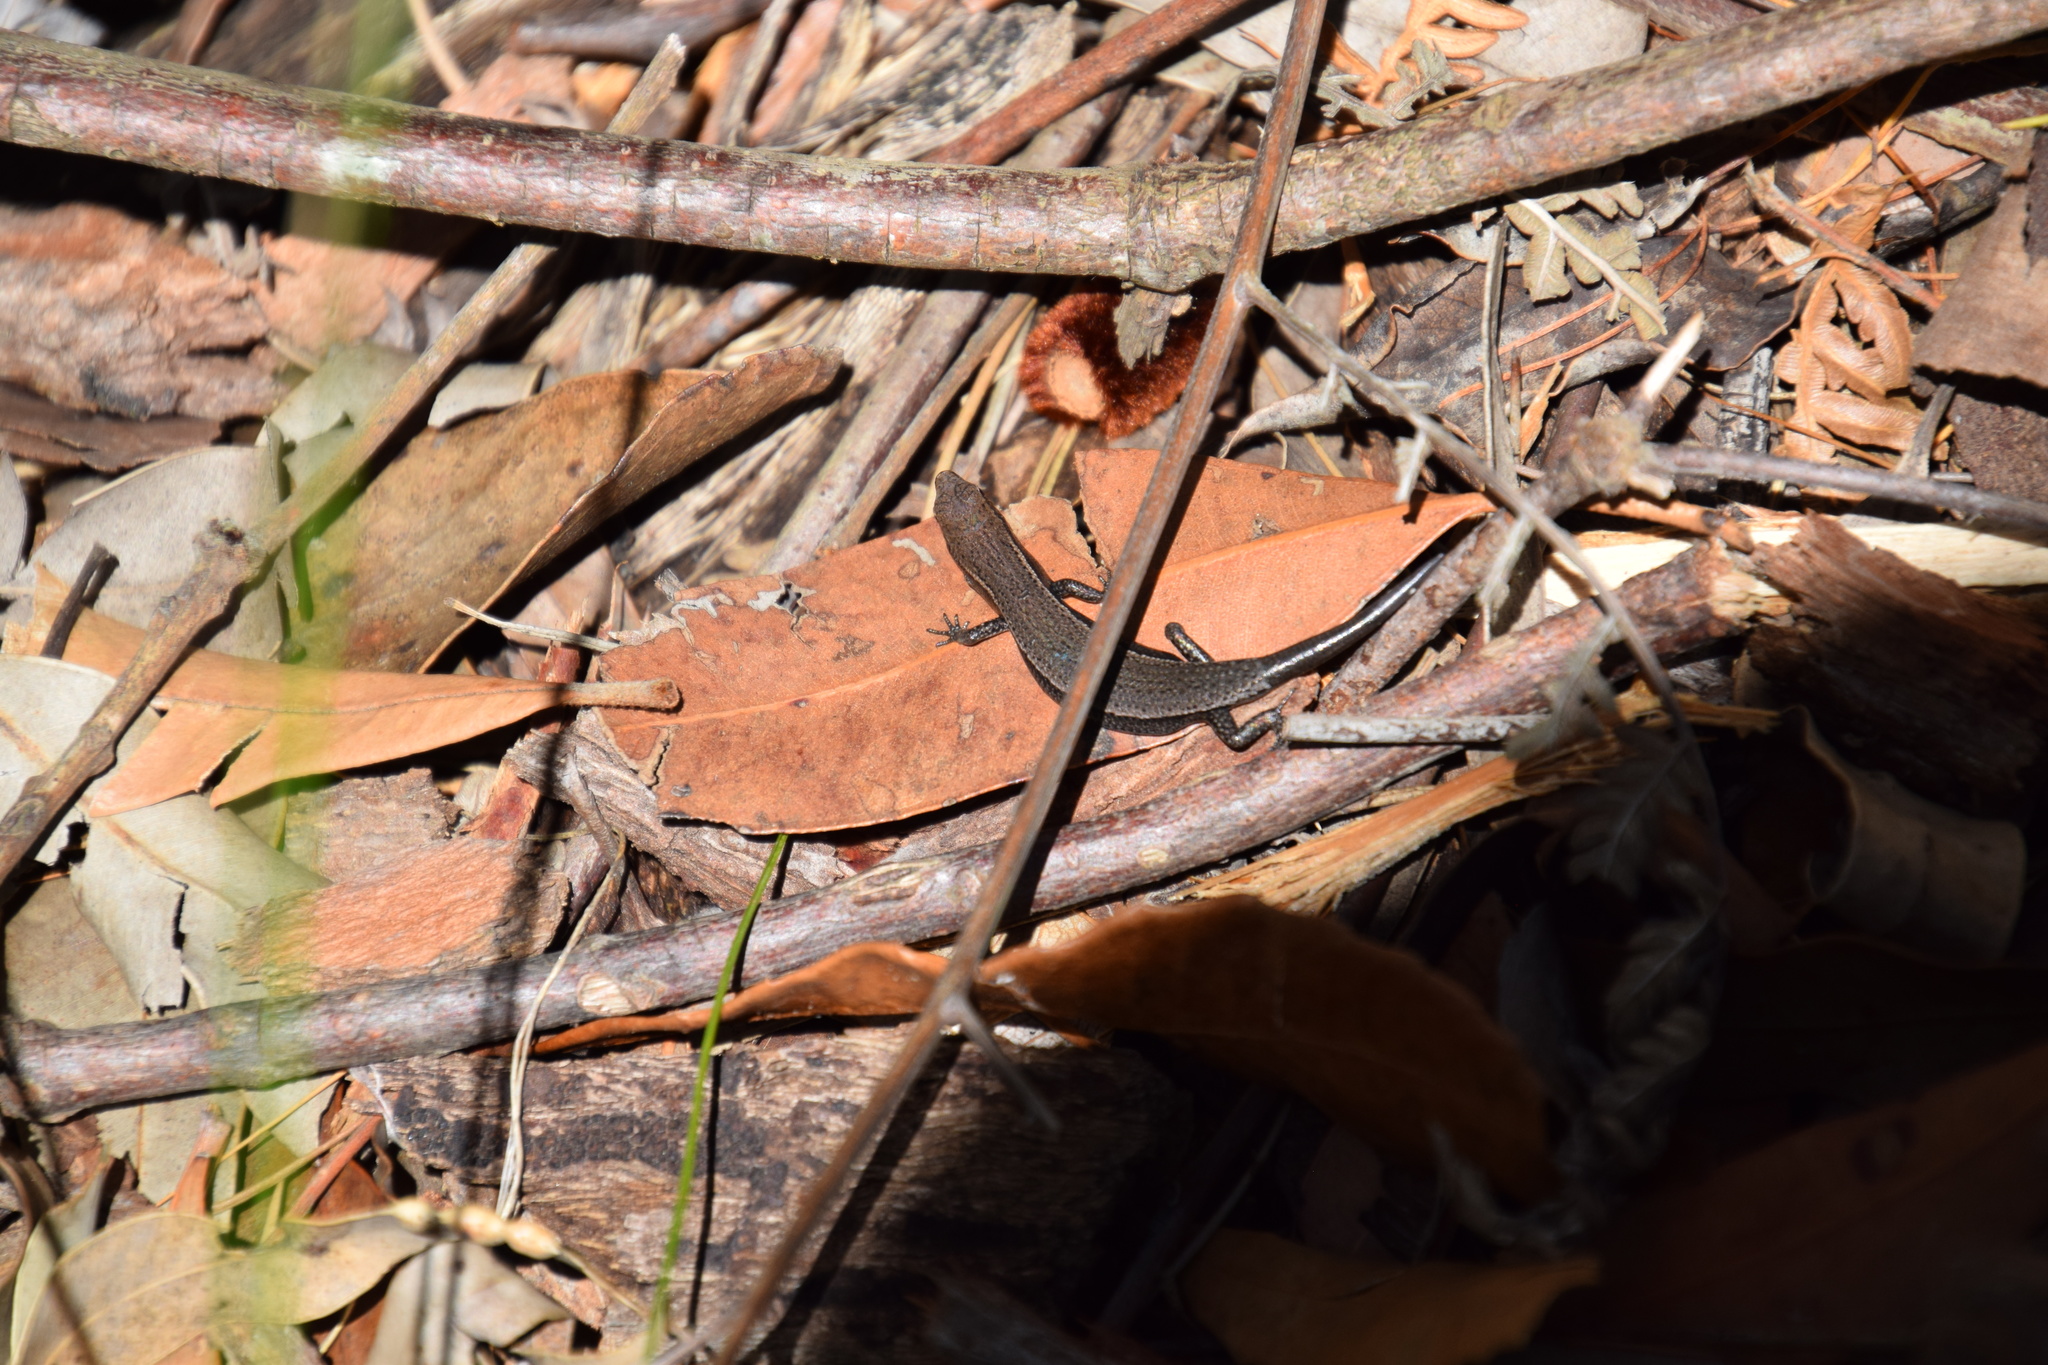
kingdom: Animalia
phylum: Chordata
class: Squamata
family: Scincidae
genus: Lampropholis
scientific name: Lampropholis delicata
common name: Plague skink
